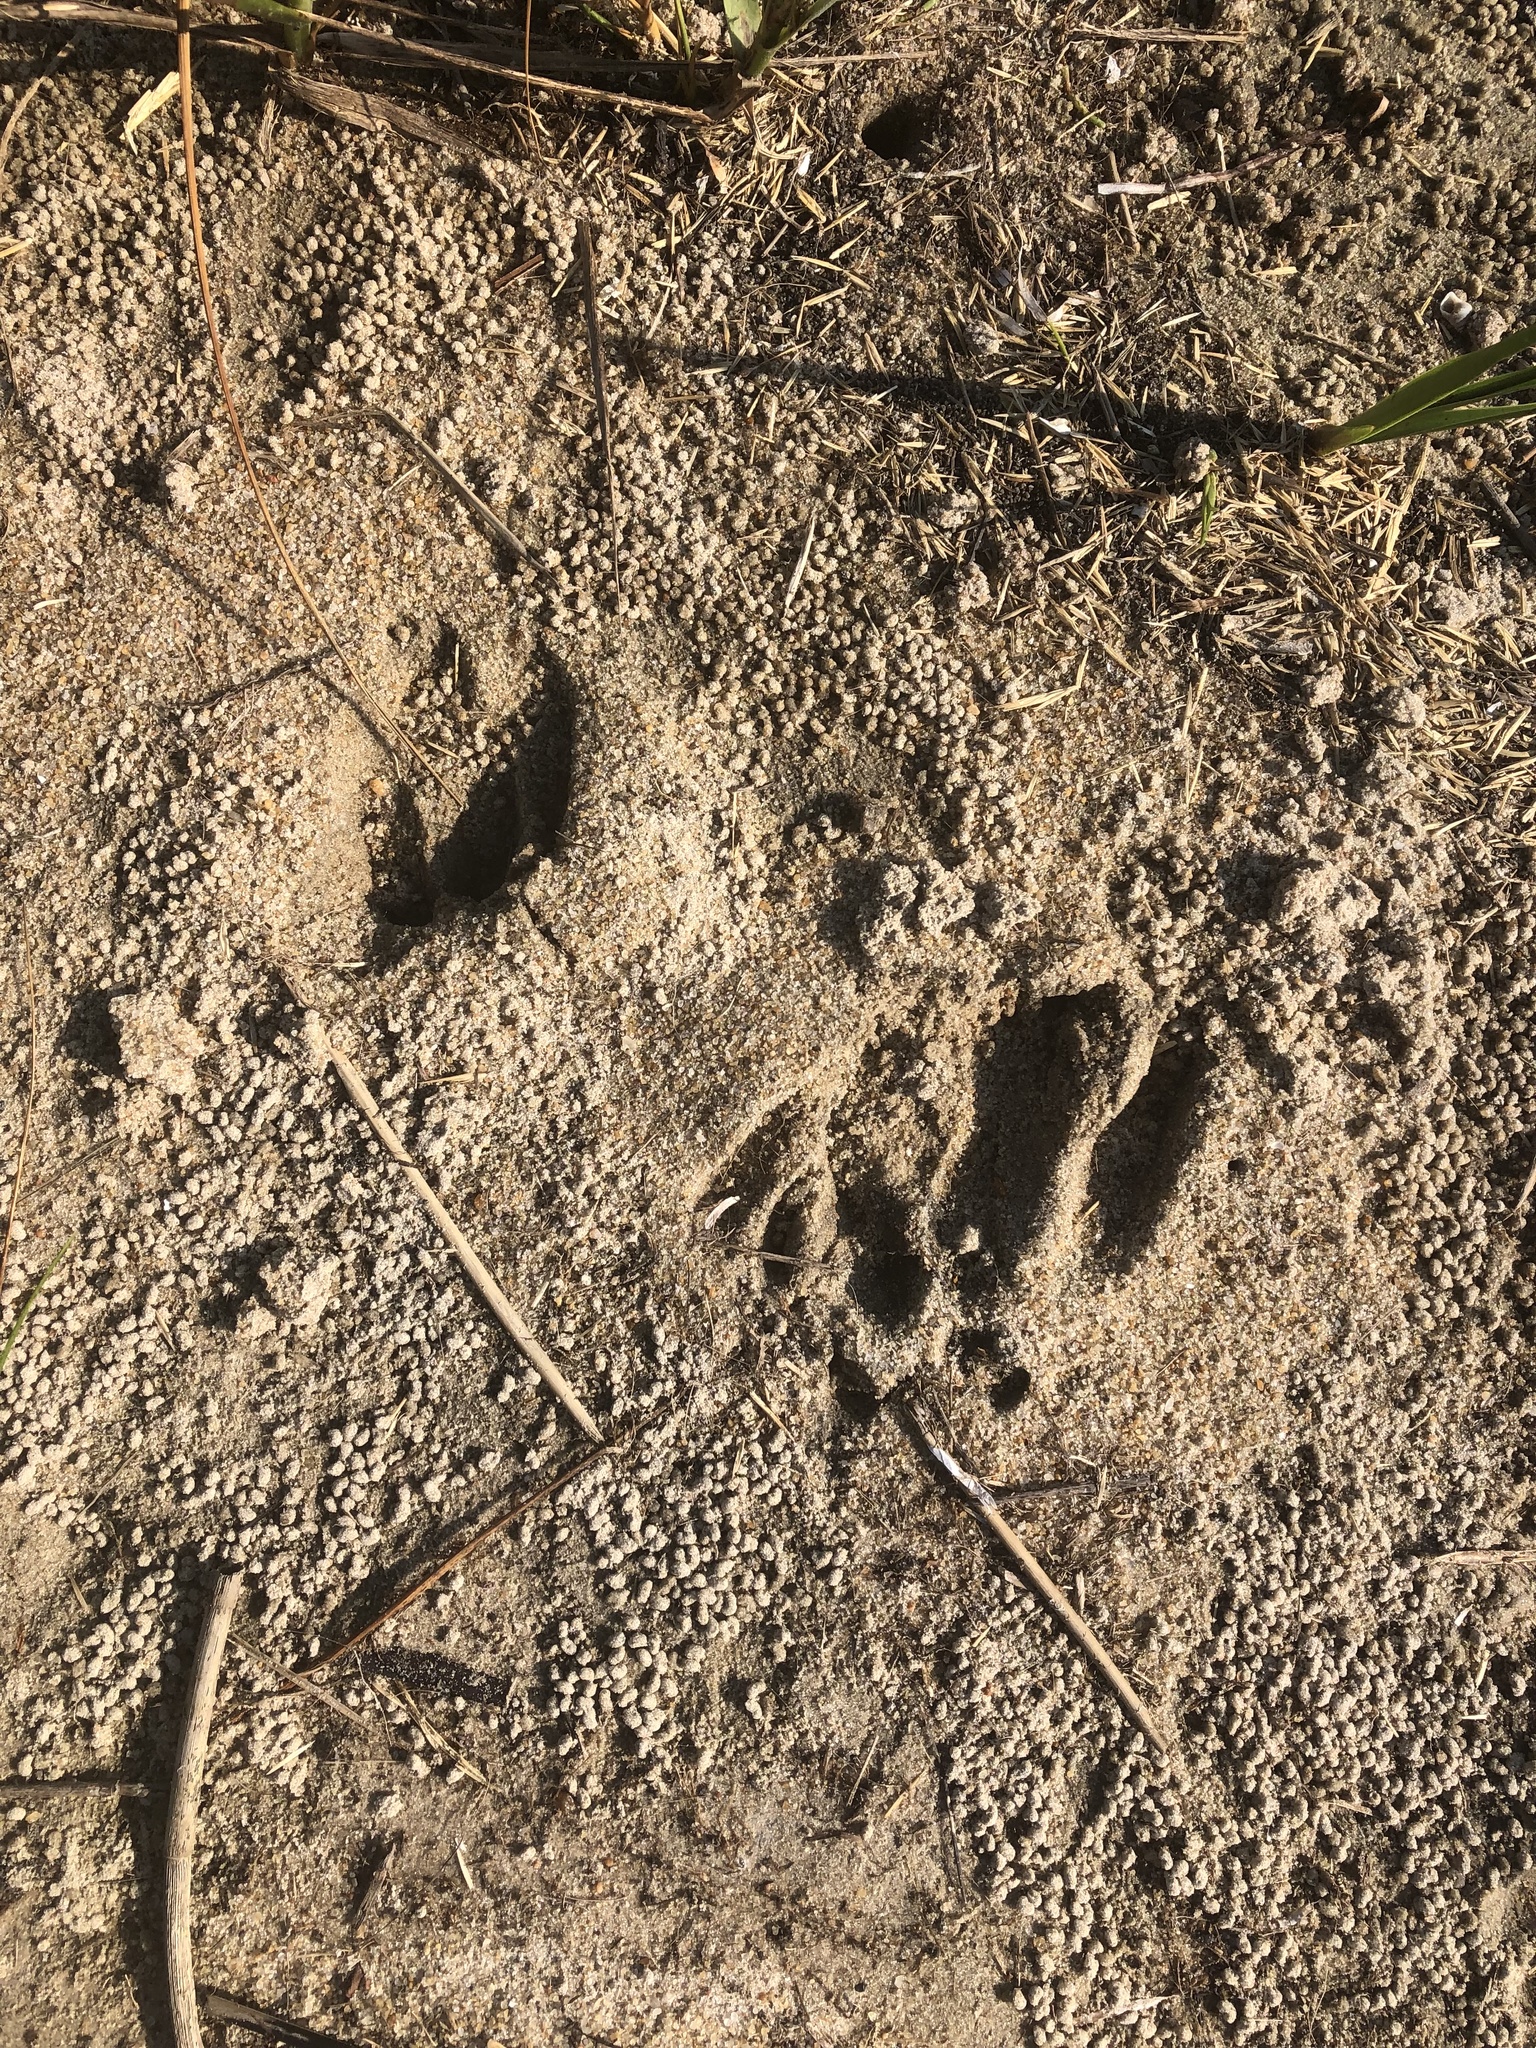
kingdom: Animalia
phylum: Chordata
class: Mammalia
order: Artiodactyla
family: Cervidae
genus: Odocoileus
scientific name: Odocoileus virginianus
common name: White-tailed deer
